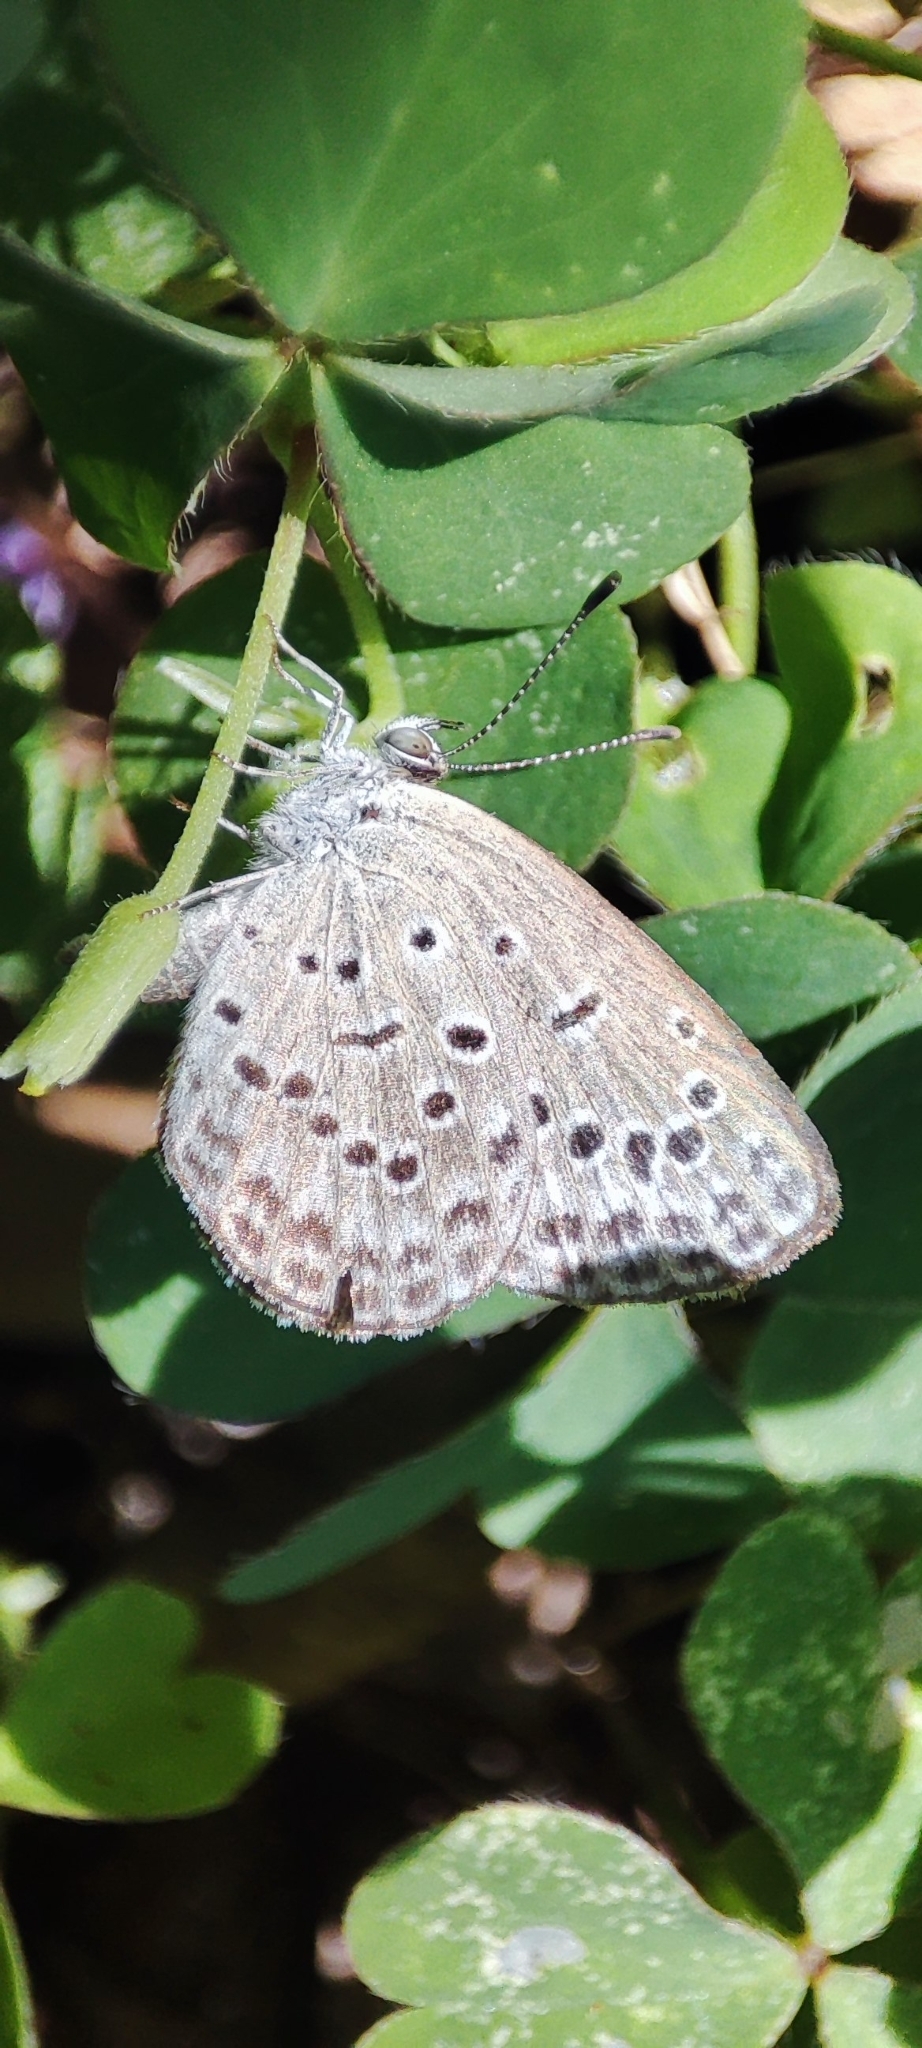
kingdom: Animalia
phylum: Arthropoda
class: Insecta
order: Lepidoptera
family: Lycaenidae
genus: Pseudozizeeria
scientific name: Pseudozizeeria maha
